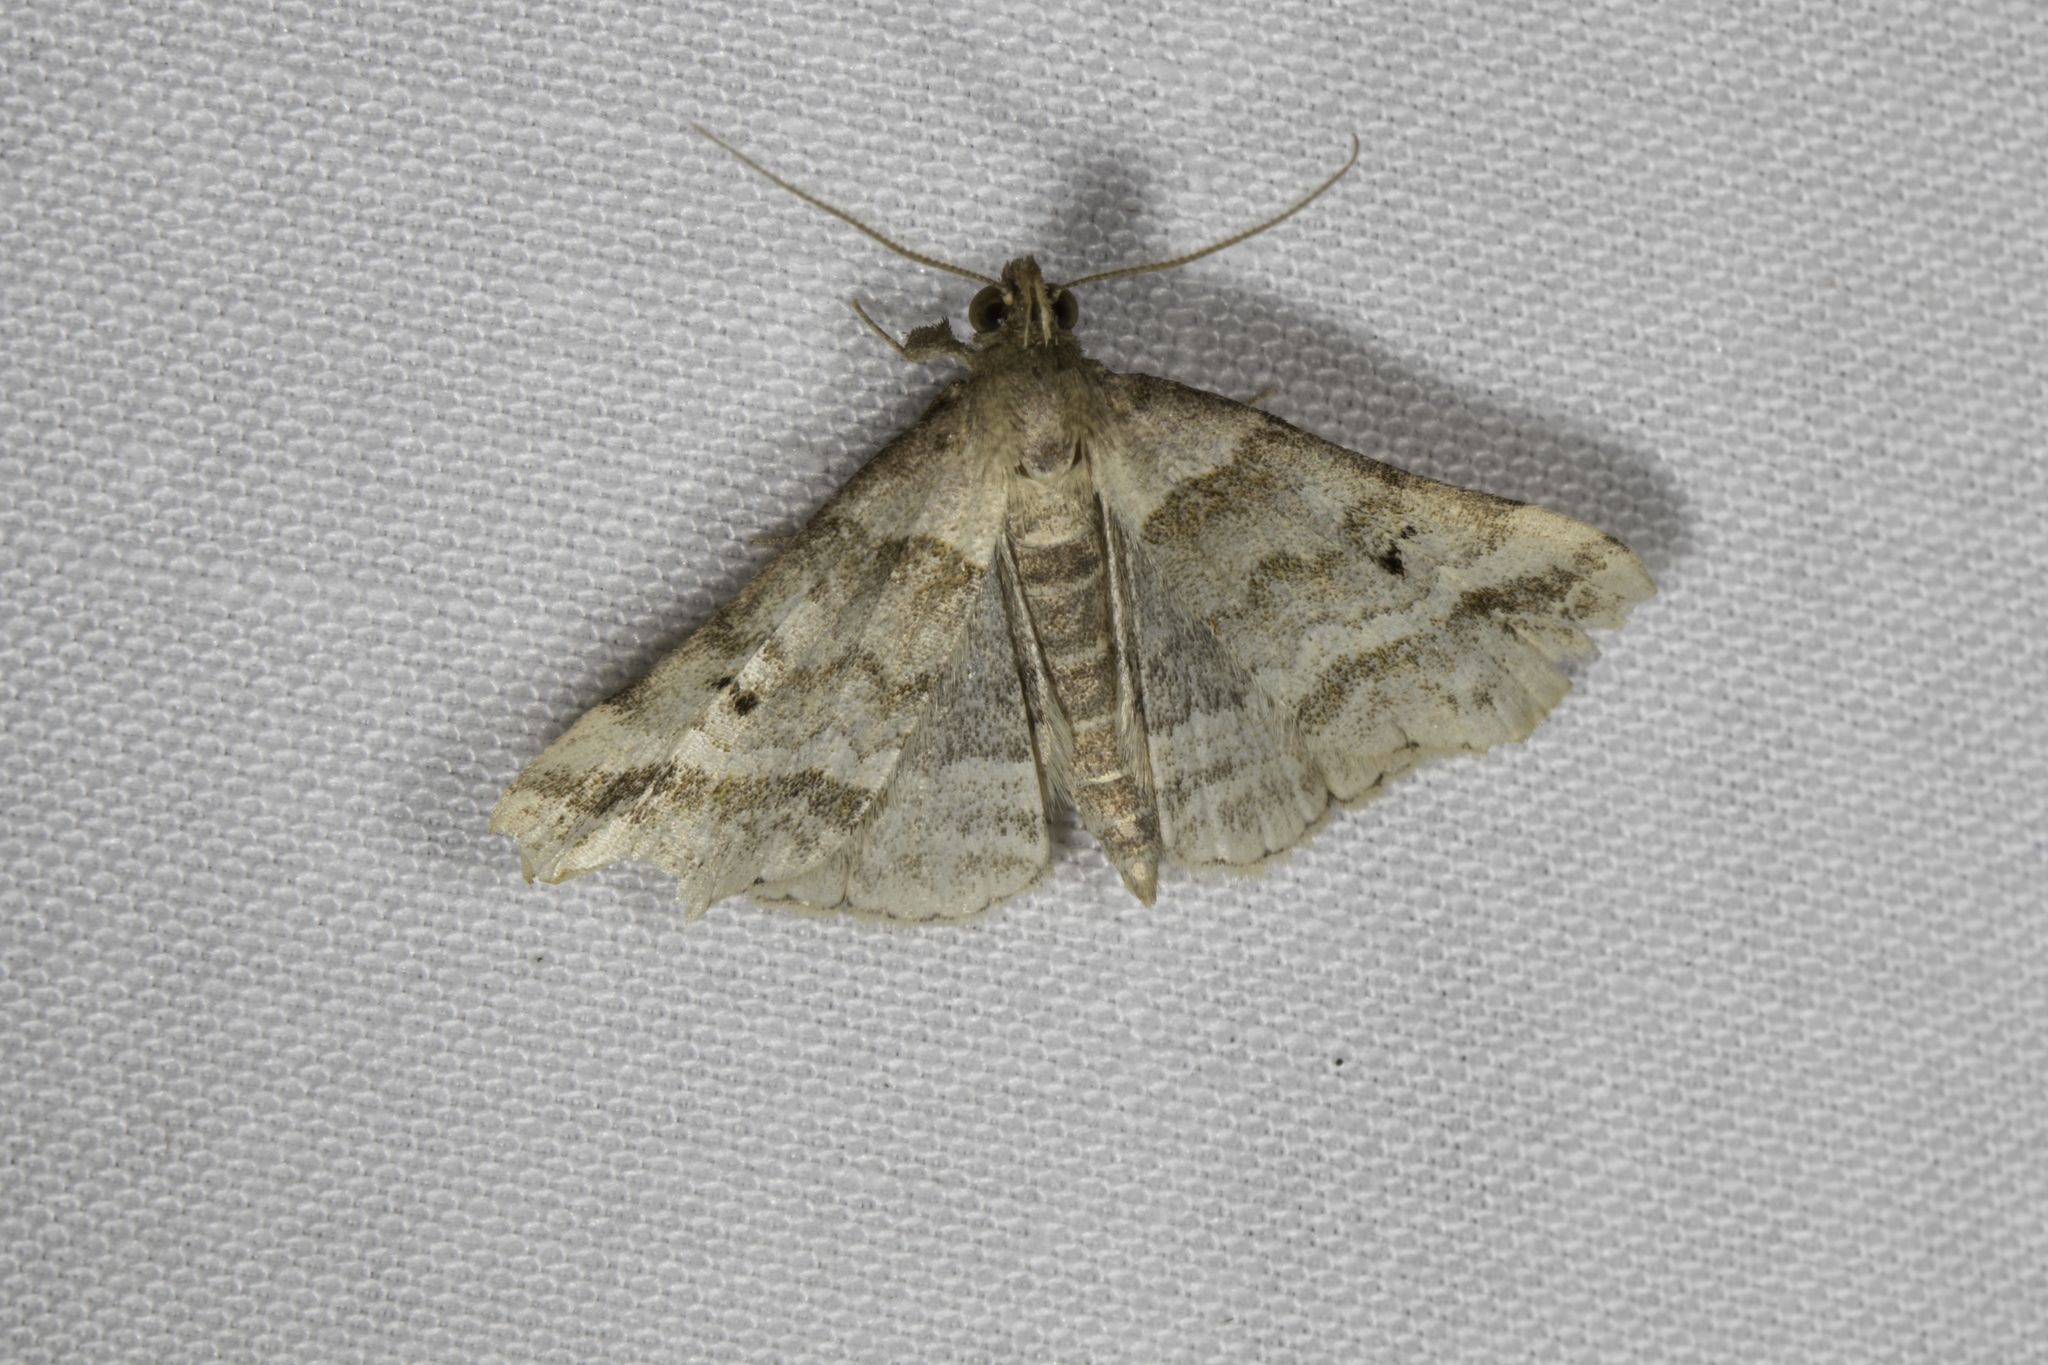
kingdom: Animalia
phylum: Arthropoda
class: Insecta
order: Lepidoptera
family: Erebidae
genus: Phaeolita
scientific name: Phaeolita pyramusalis
